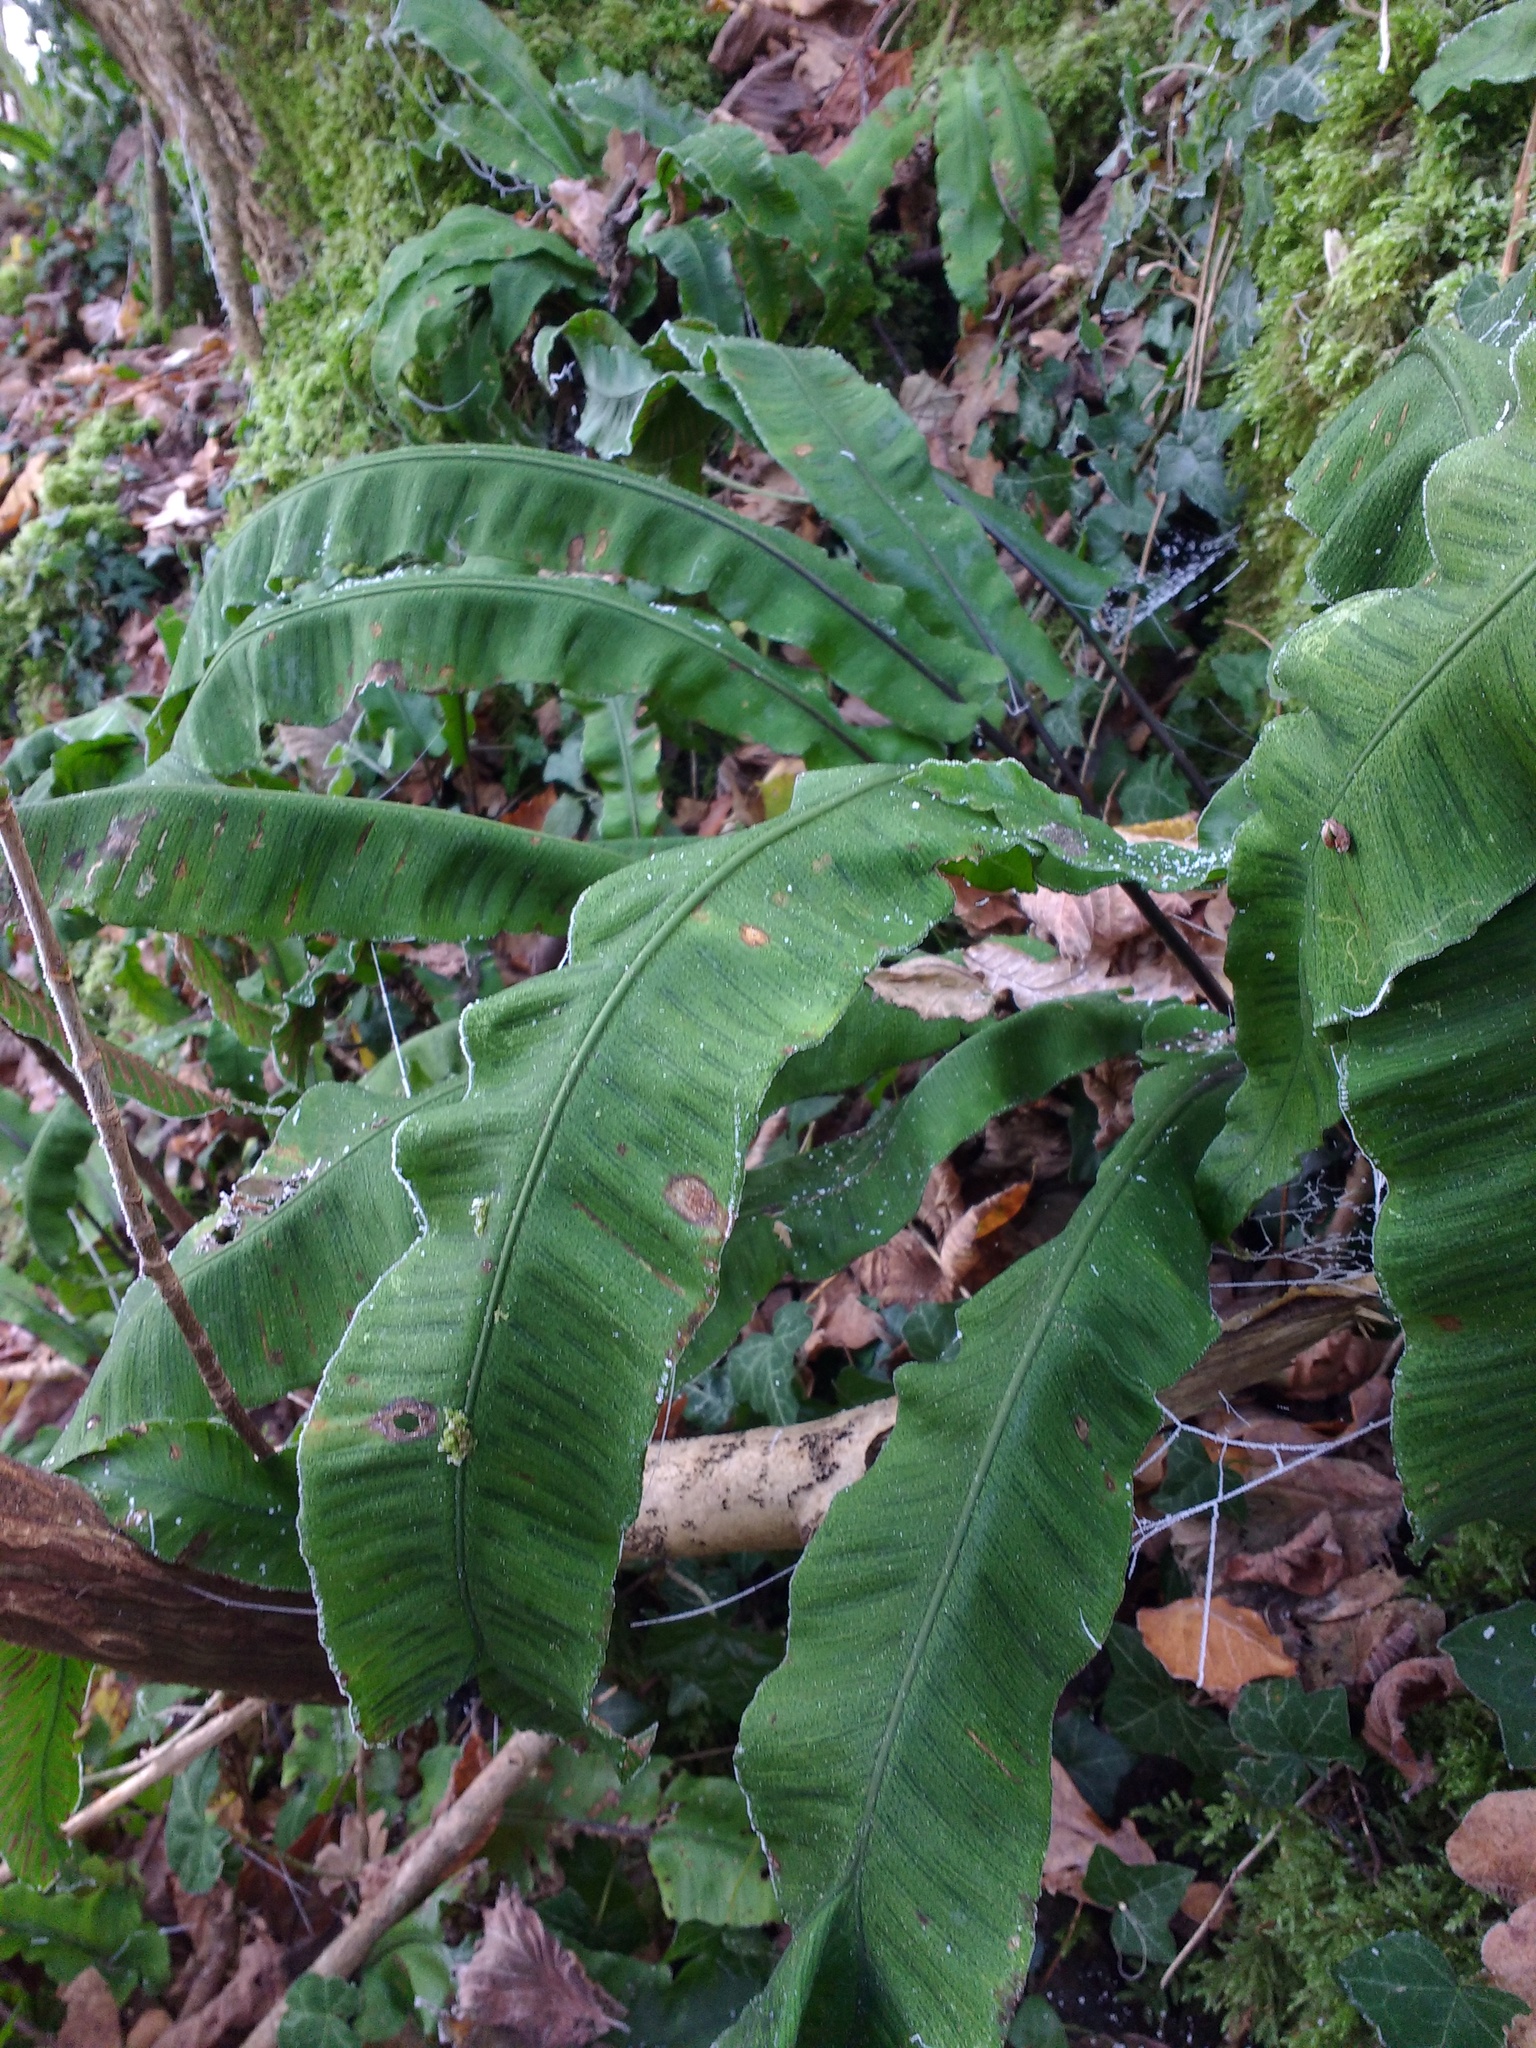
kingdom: Plantae
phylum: Tracheophyta
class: Polypodiopsida
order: Polypodiales
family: Aspleniaceae
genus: Asplenium
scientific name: Asplenium scolopendrium
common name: Hart's-tongue fern
